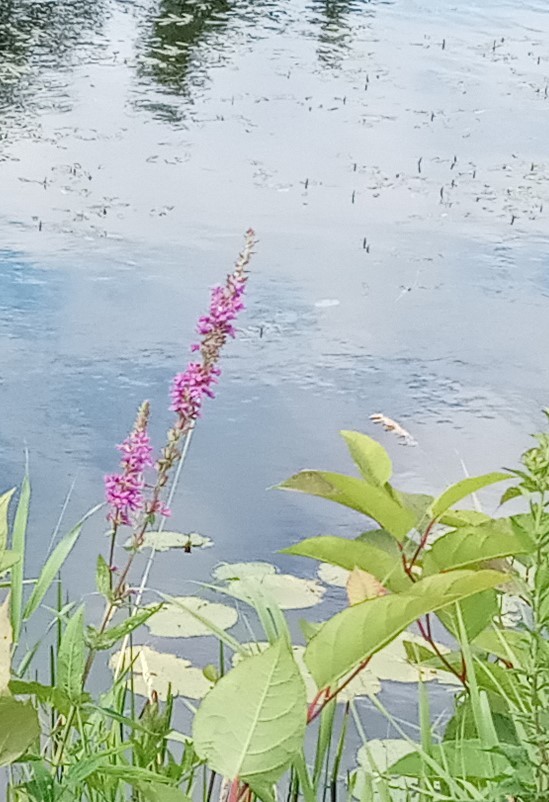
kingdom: Plantae
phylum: Tracheophyta
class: Magnoliopsida
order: Myrtales
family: Lythraceae
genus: Lythrum
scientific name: Lythrum salicaria
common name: Purple loosestrife
